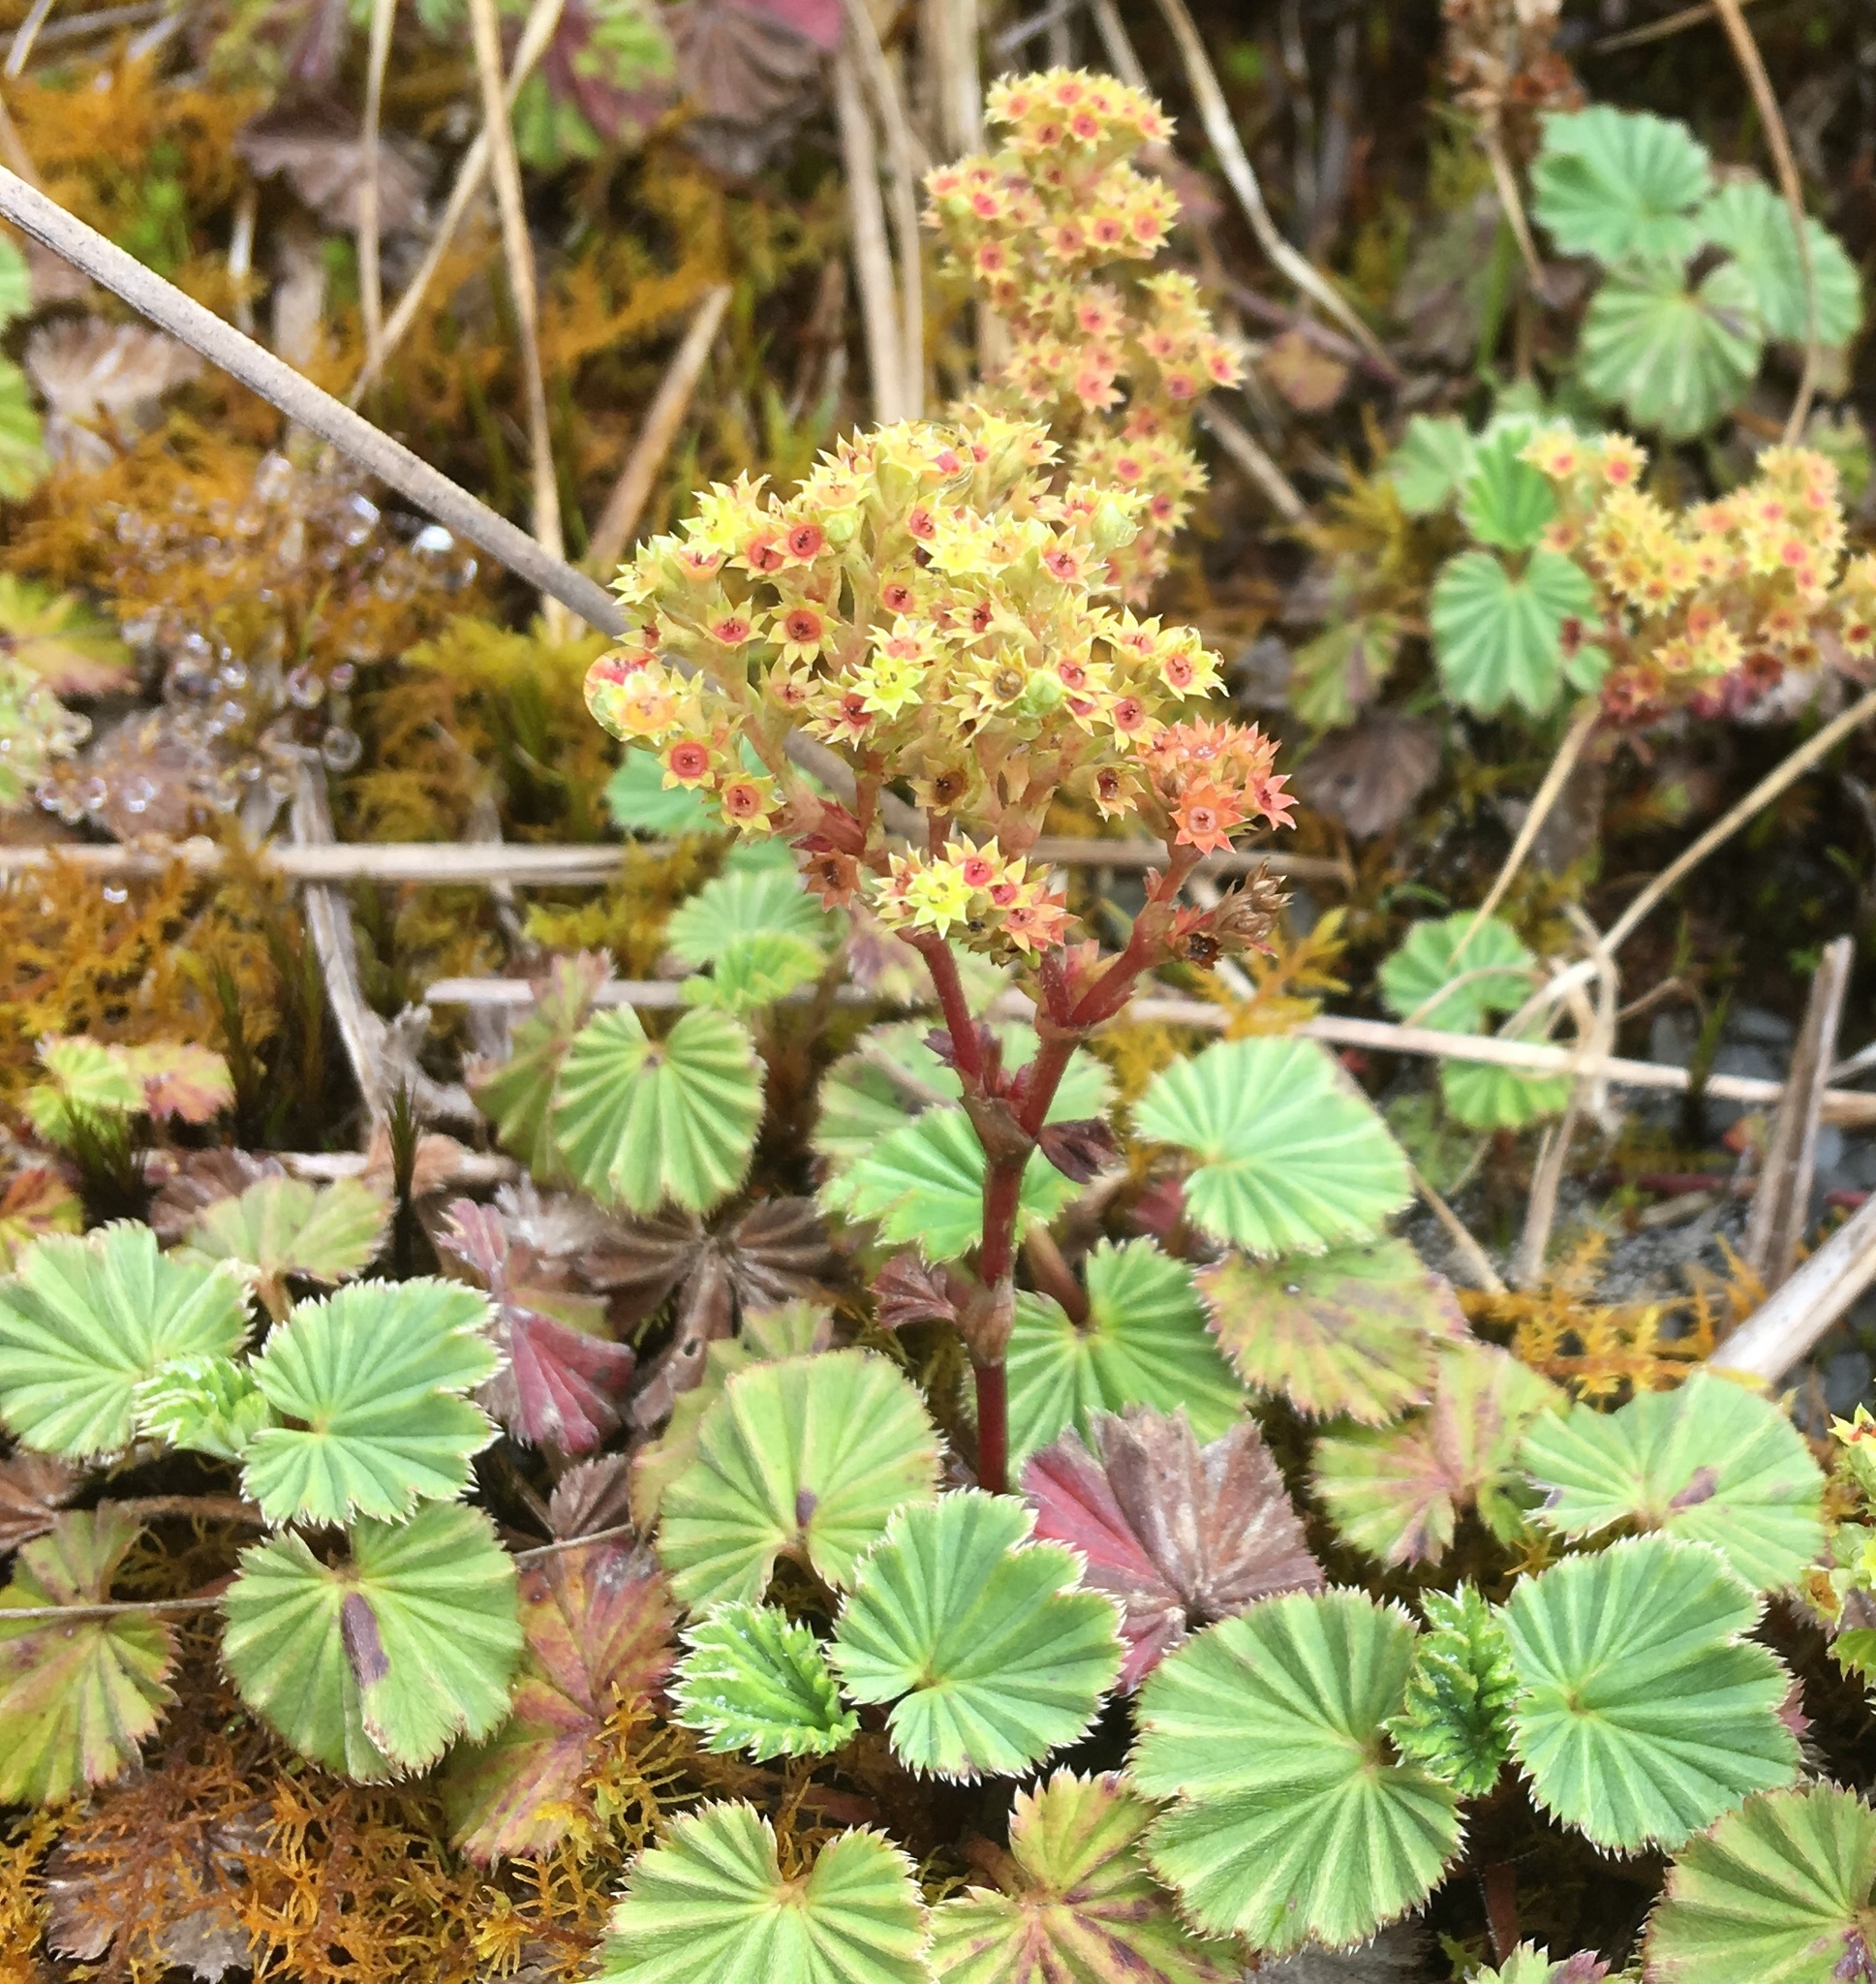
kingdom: Plantae
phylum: Tracheophyta
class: Magnoliopsida
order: Rosales
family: Rosaceae
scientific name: Rosaceae
